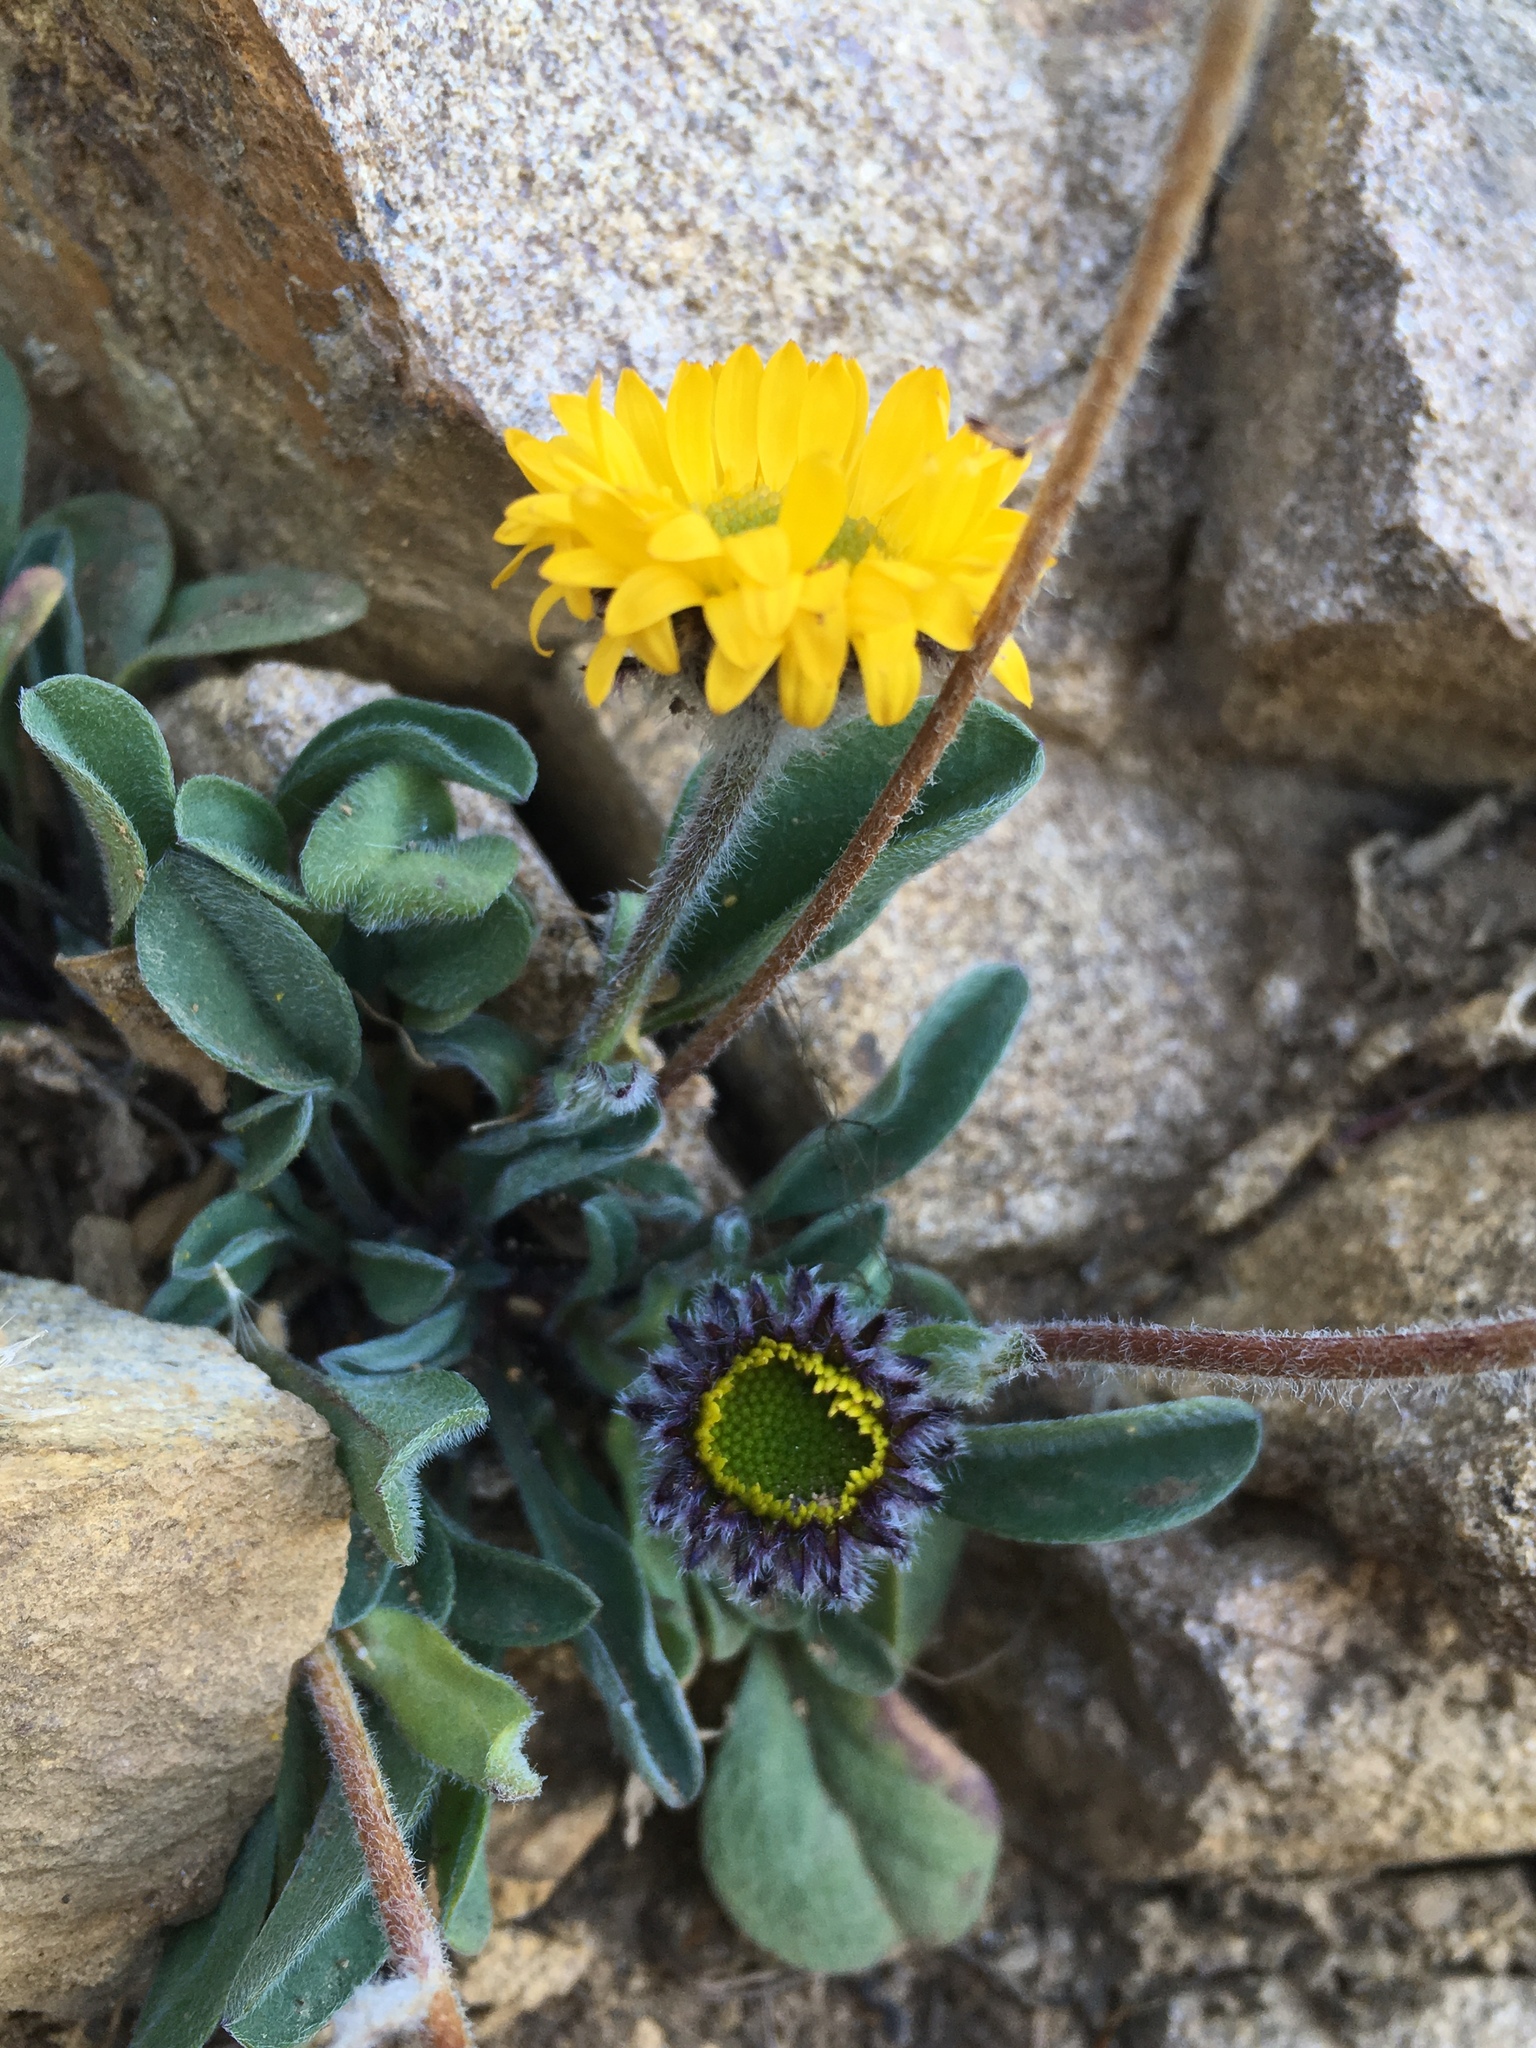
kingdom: Plantae
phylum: Tracheophyta
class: Magnoliopsida
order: Asterales
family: Asteraceae
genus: Erigeron
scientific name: Erigeron aureus
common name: Alpine yellow fleabane
